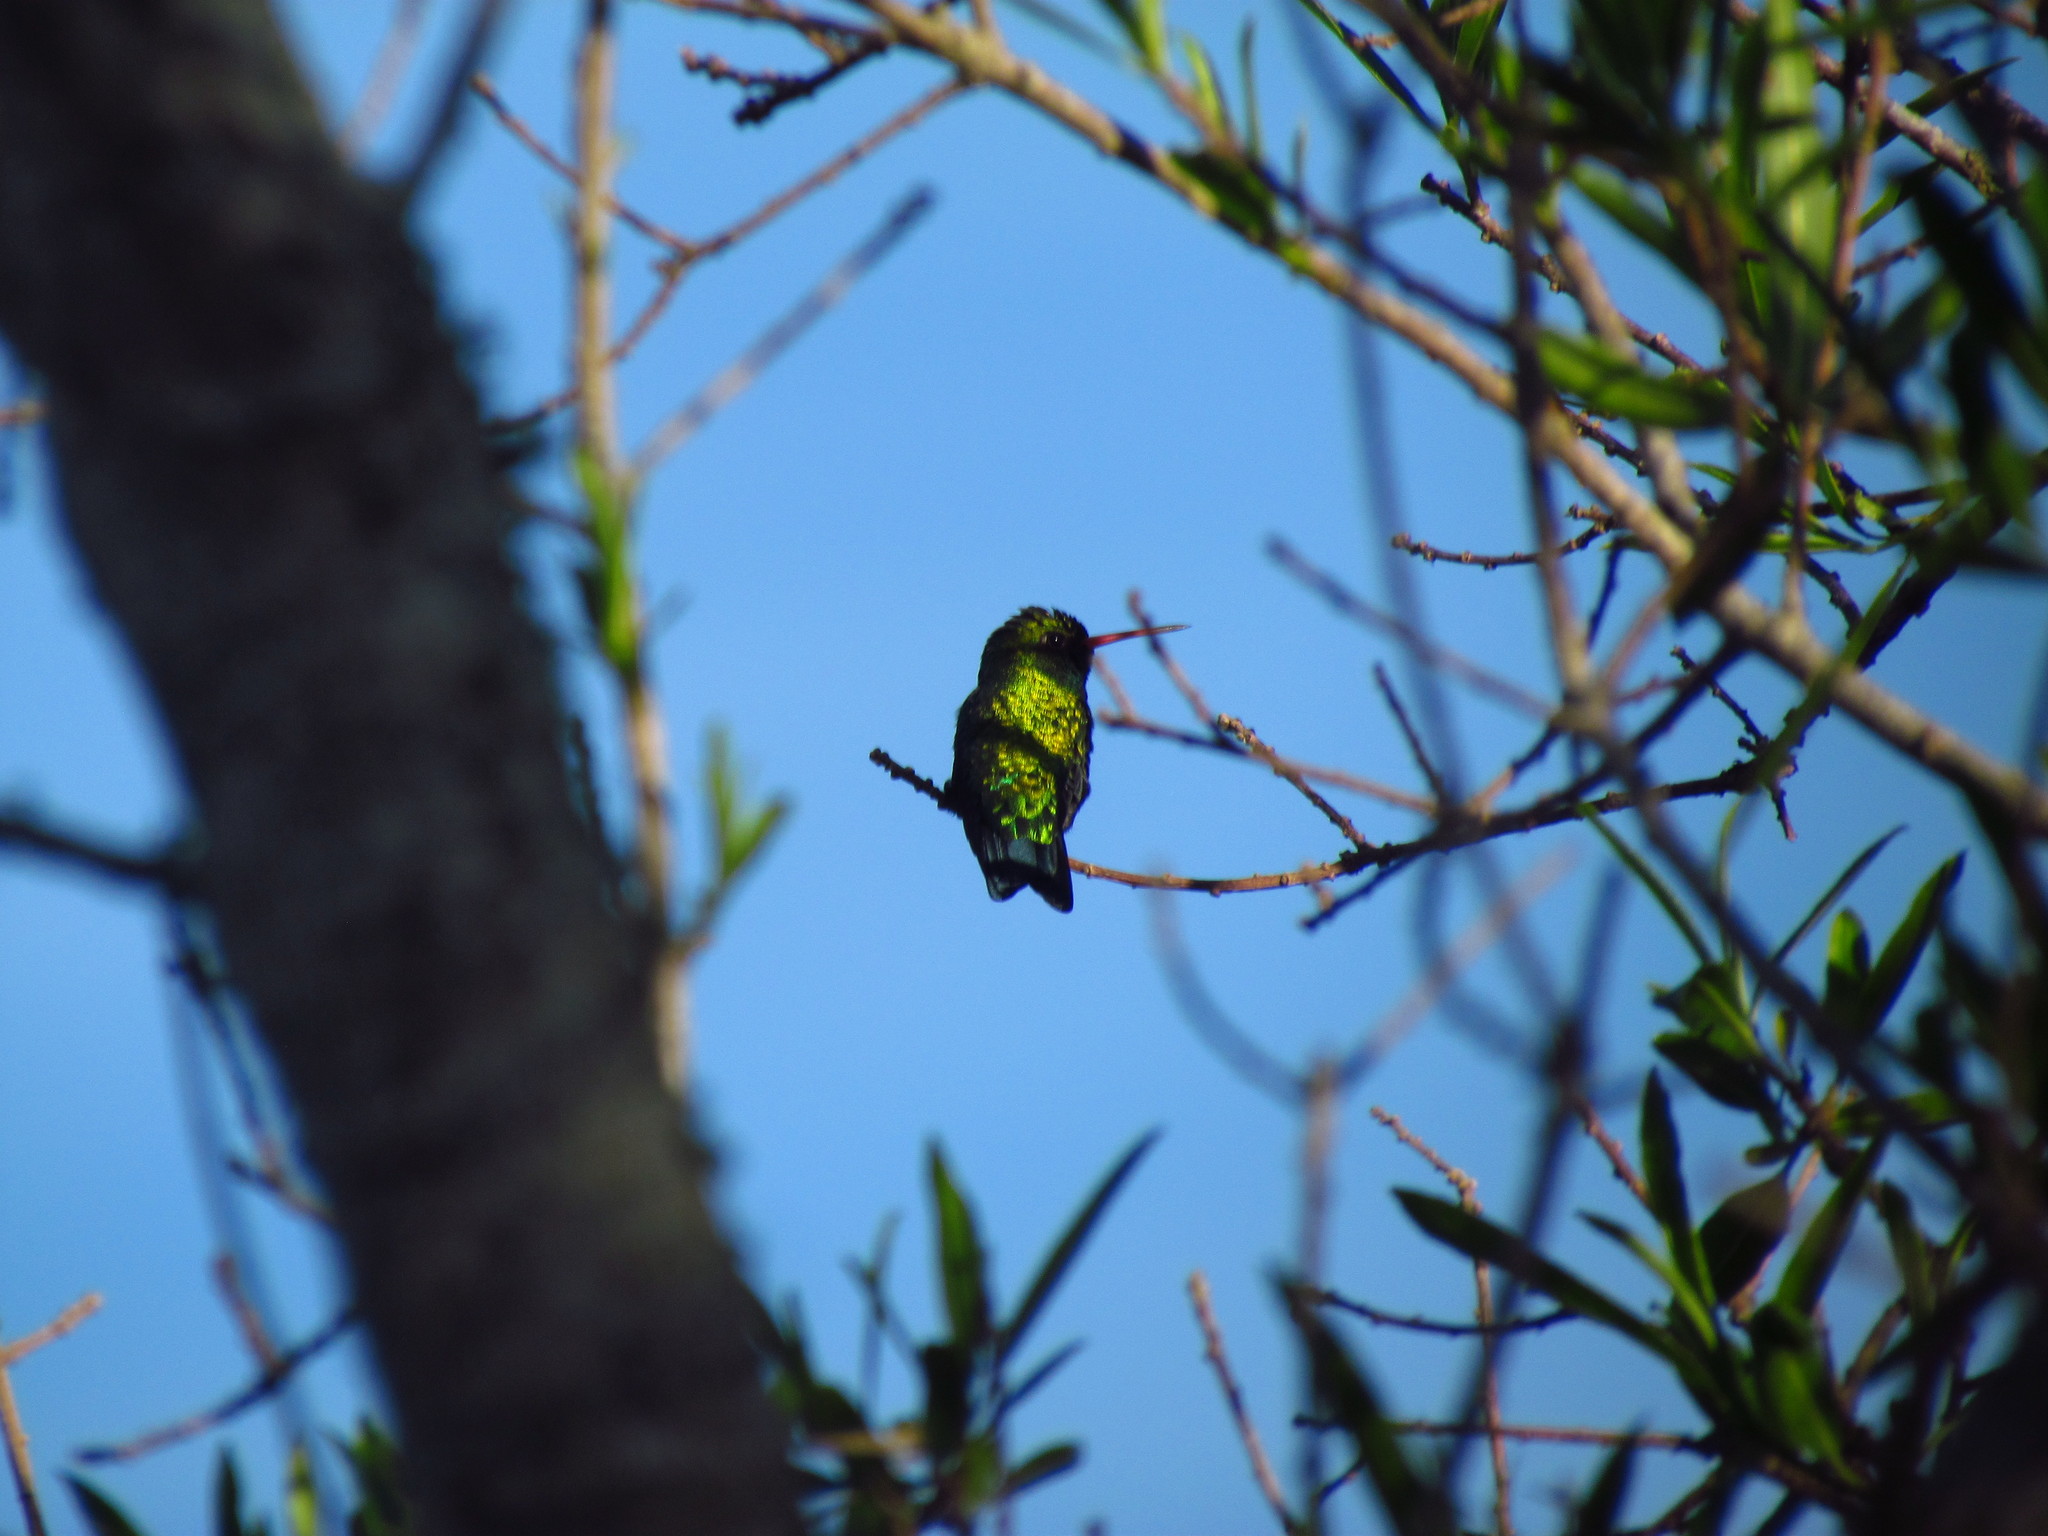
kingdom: Animalia
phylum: Chordata
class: Aves
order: Apodiformes
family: Trochilidae
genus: Chlorostilbon
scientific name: Chlorostilbon lucidus
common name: Glittering-bellied emerald
